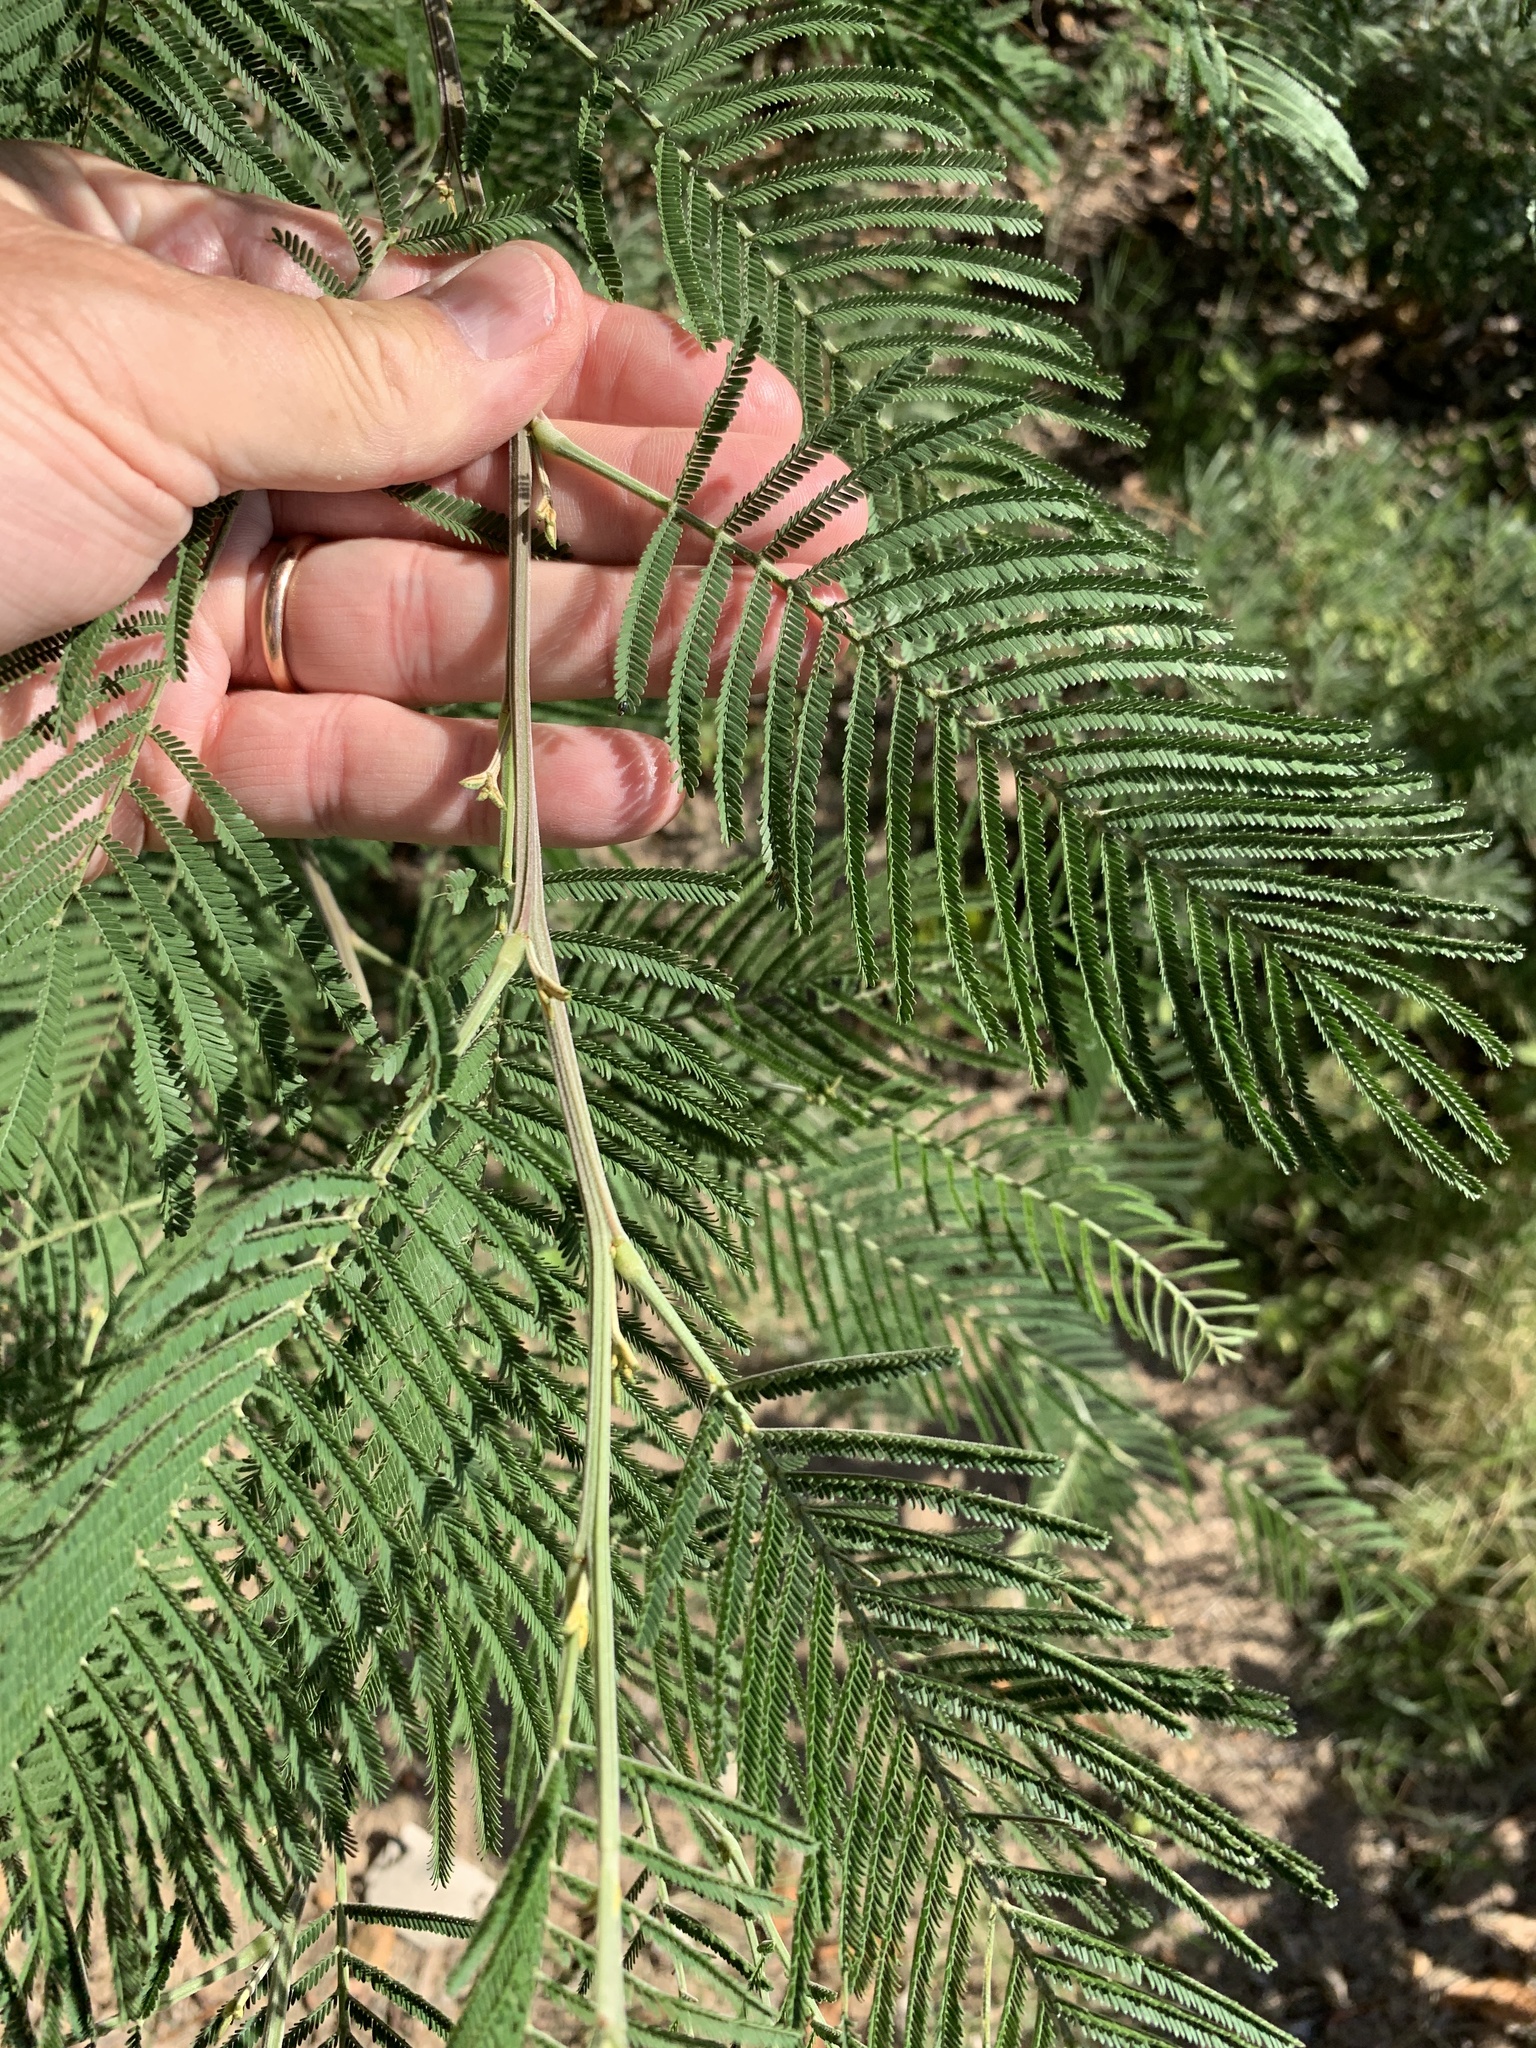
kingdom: Plantae
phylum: Tracheophyta
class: Magnoliopsida
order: Fabales
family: Fabaceae
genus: Acacia
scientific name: Acacia mearnsii
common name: Black wattle
